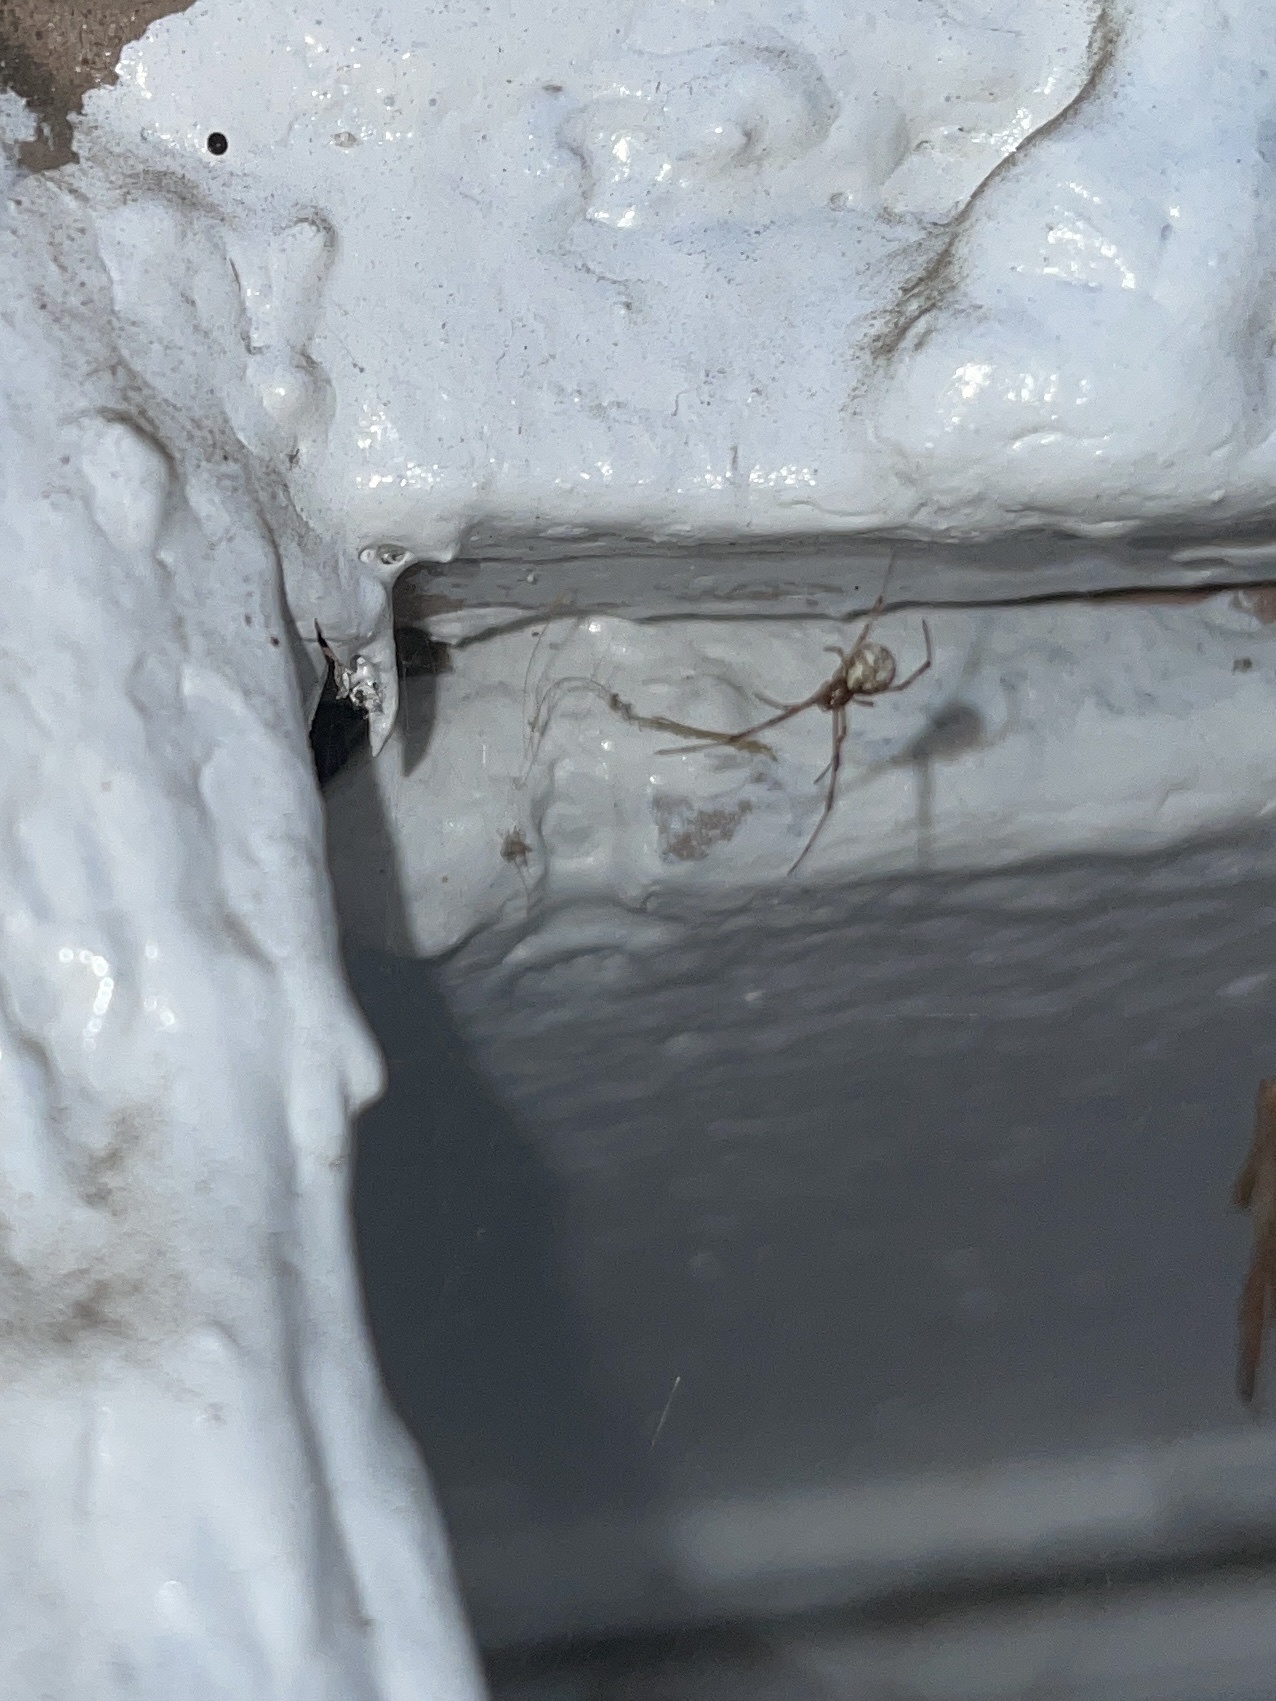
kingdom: Animalia
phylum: Arthropoda
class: Arachnida
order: Araneae
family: Theridiidae
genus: Latrodectus
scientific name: Latrodectus geometricus
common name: Brown widow spider
